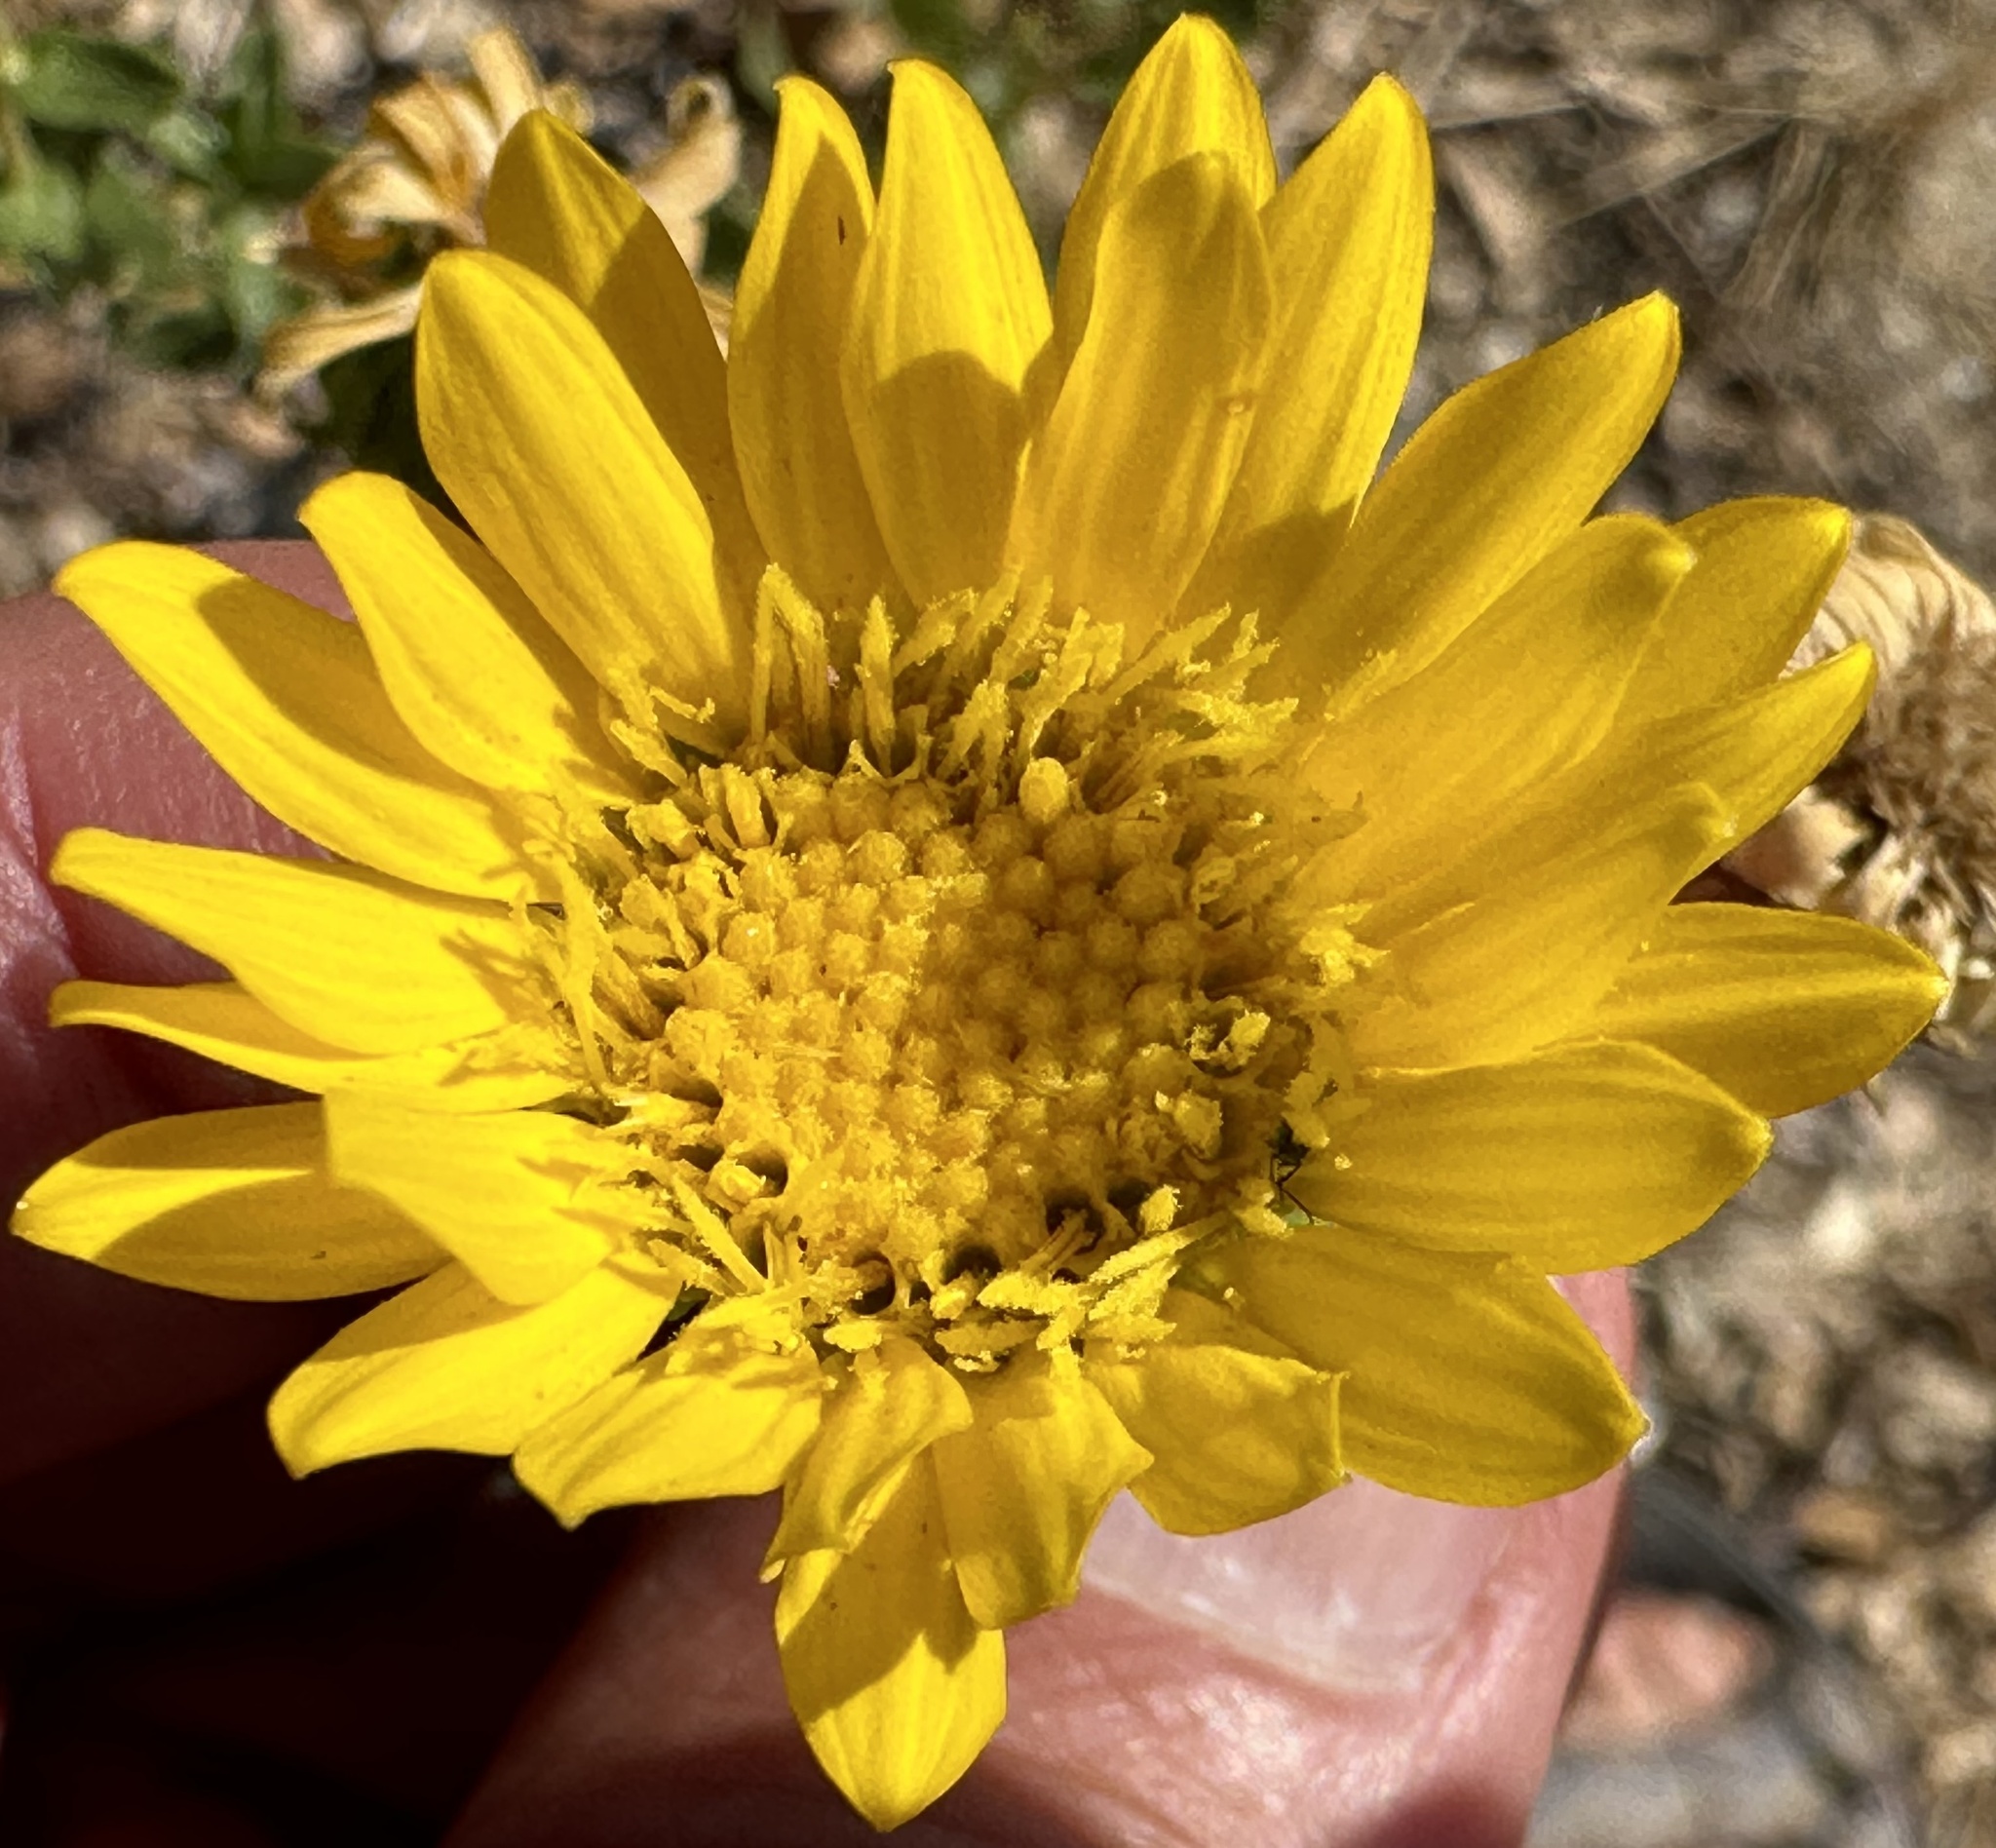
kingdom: Plantae
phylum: Tracheophyta
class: Magnoliopsida
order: Asterales
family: Asteraceae
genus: Grindelia
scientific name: Grindelia hirsutula
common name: Hairy gumweed
